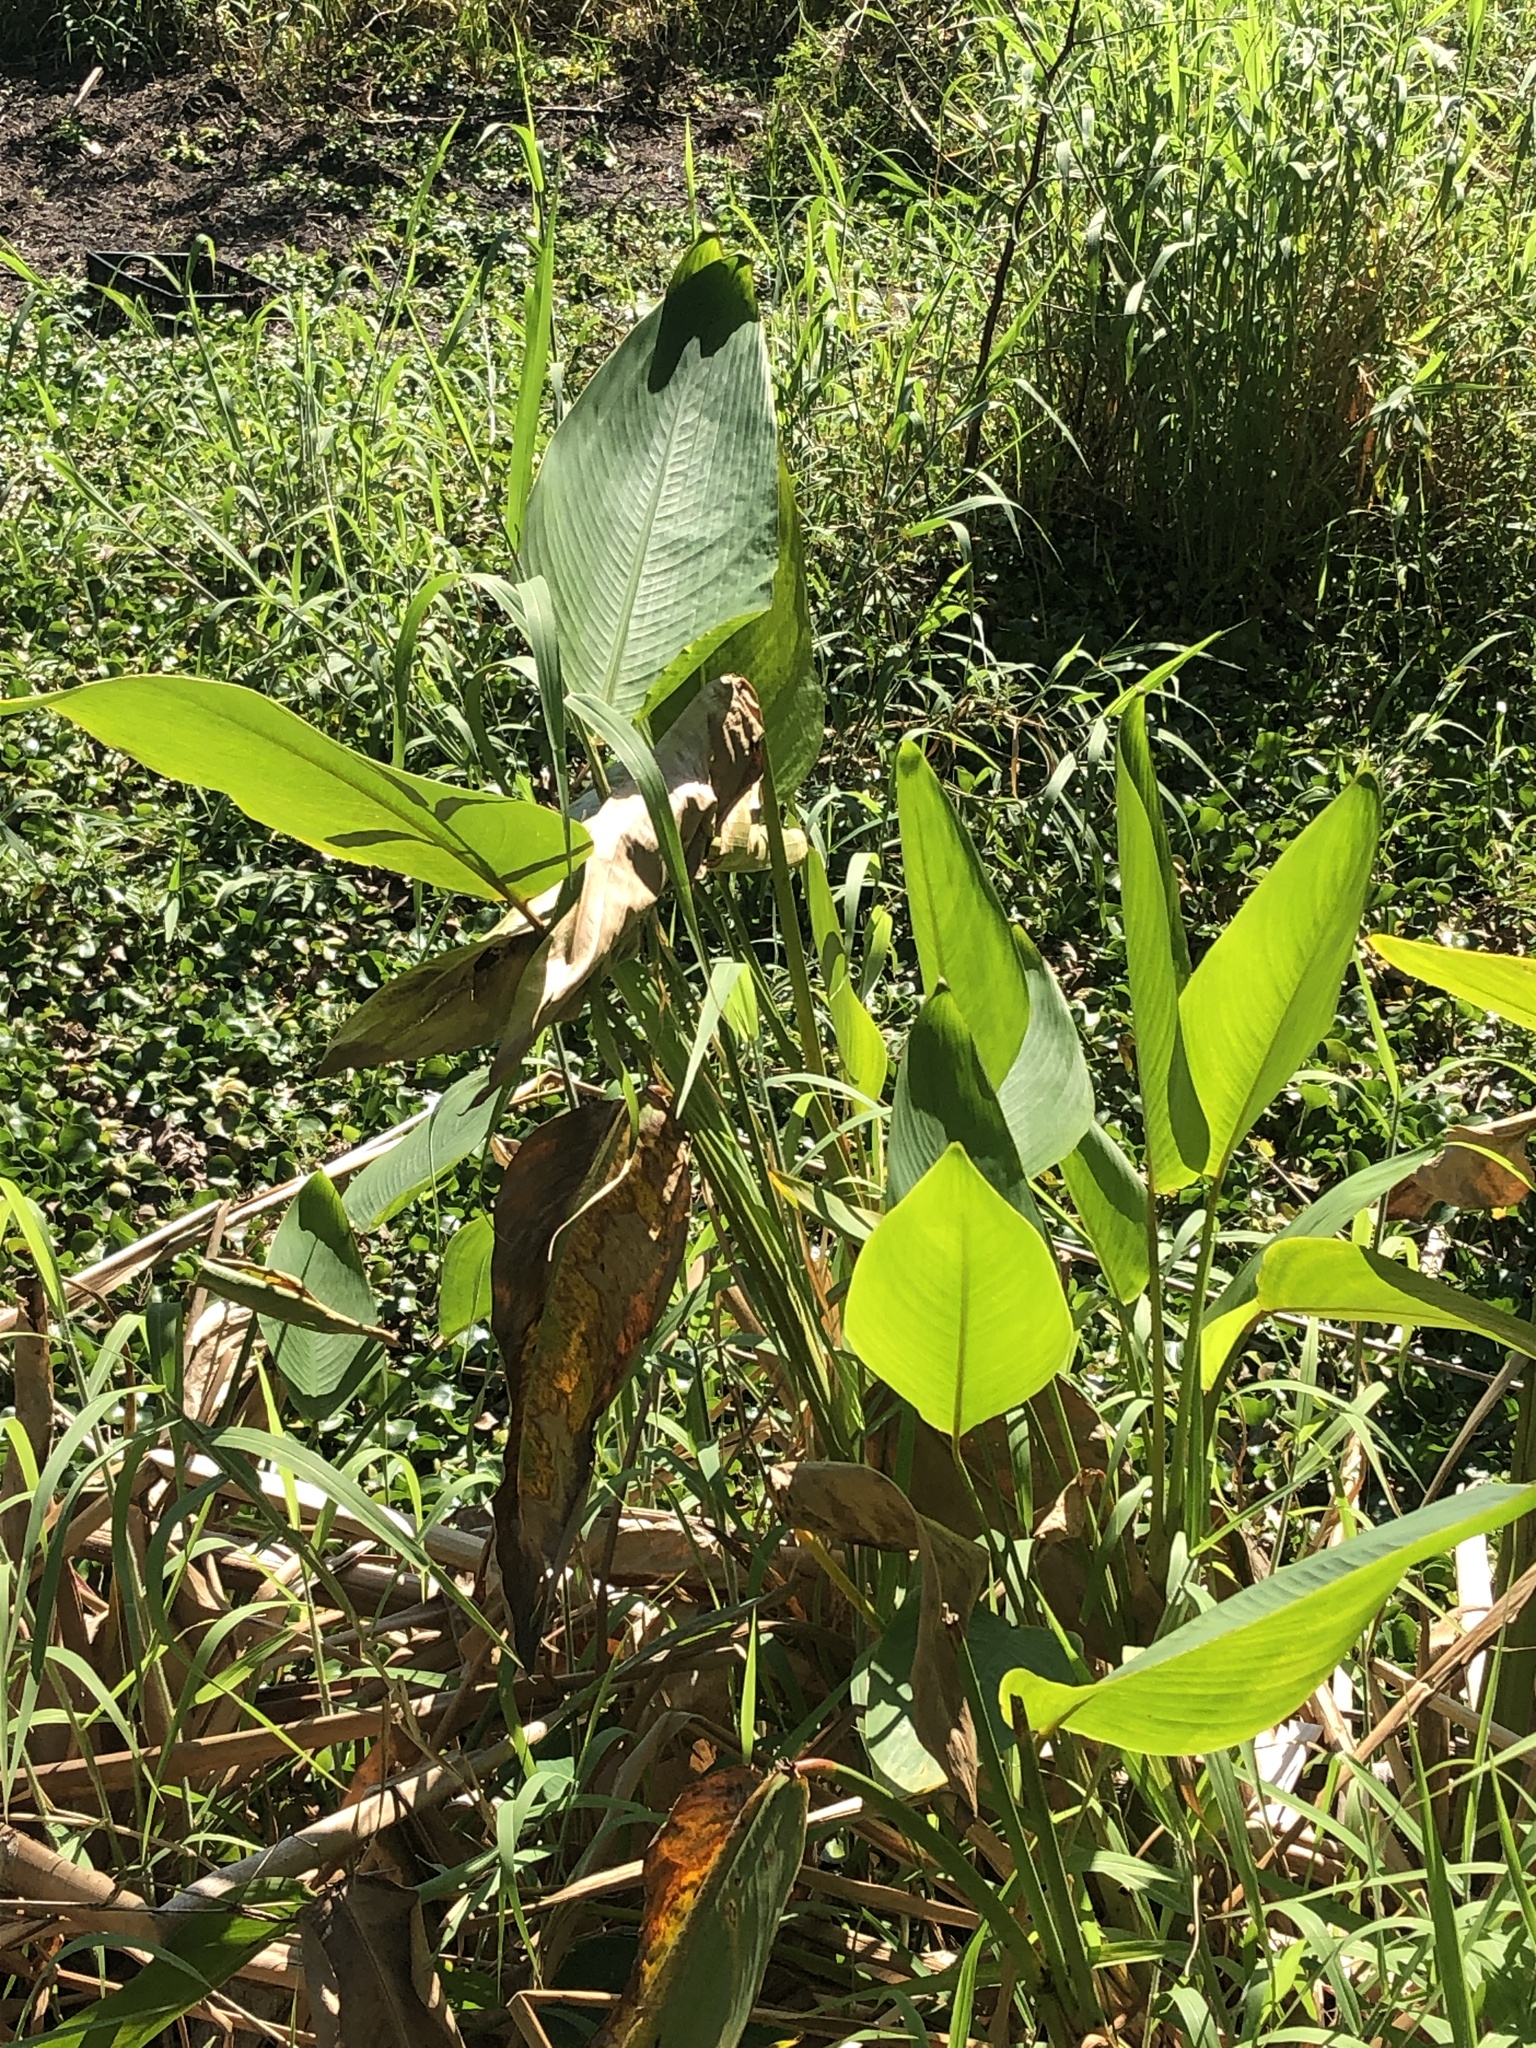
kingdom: Plantae
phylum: Tracheophyta
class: Liliopsida
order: Zingiberales
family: Marantaceae
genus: Thalia
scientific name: Thalia geniculata
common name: Arrowroot
